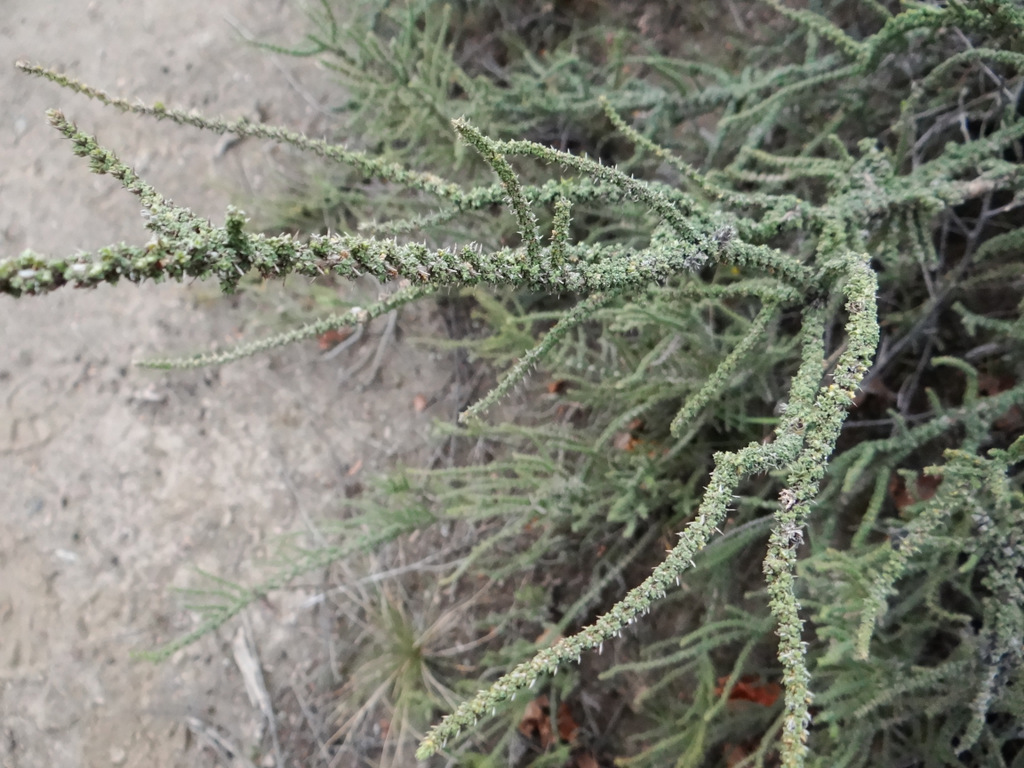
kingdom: Plantae
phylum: Tracheophyta
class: Magnoliopsida
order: Lamiales
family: Verbenaceae
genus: Junellia
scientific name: Junellia seriphioides
